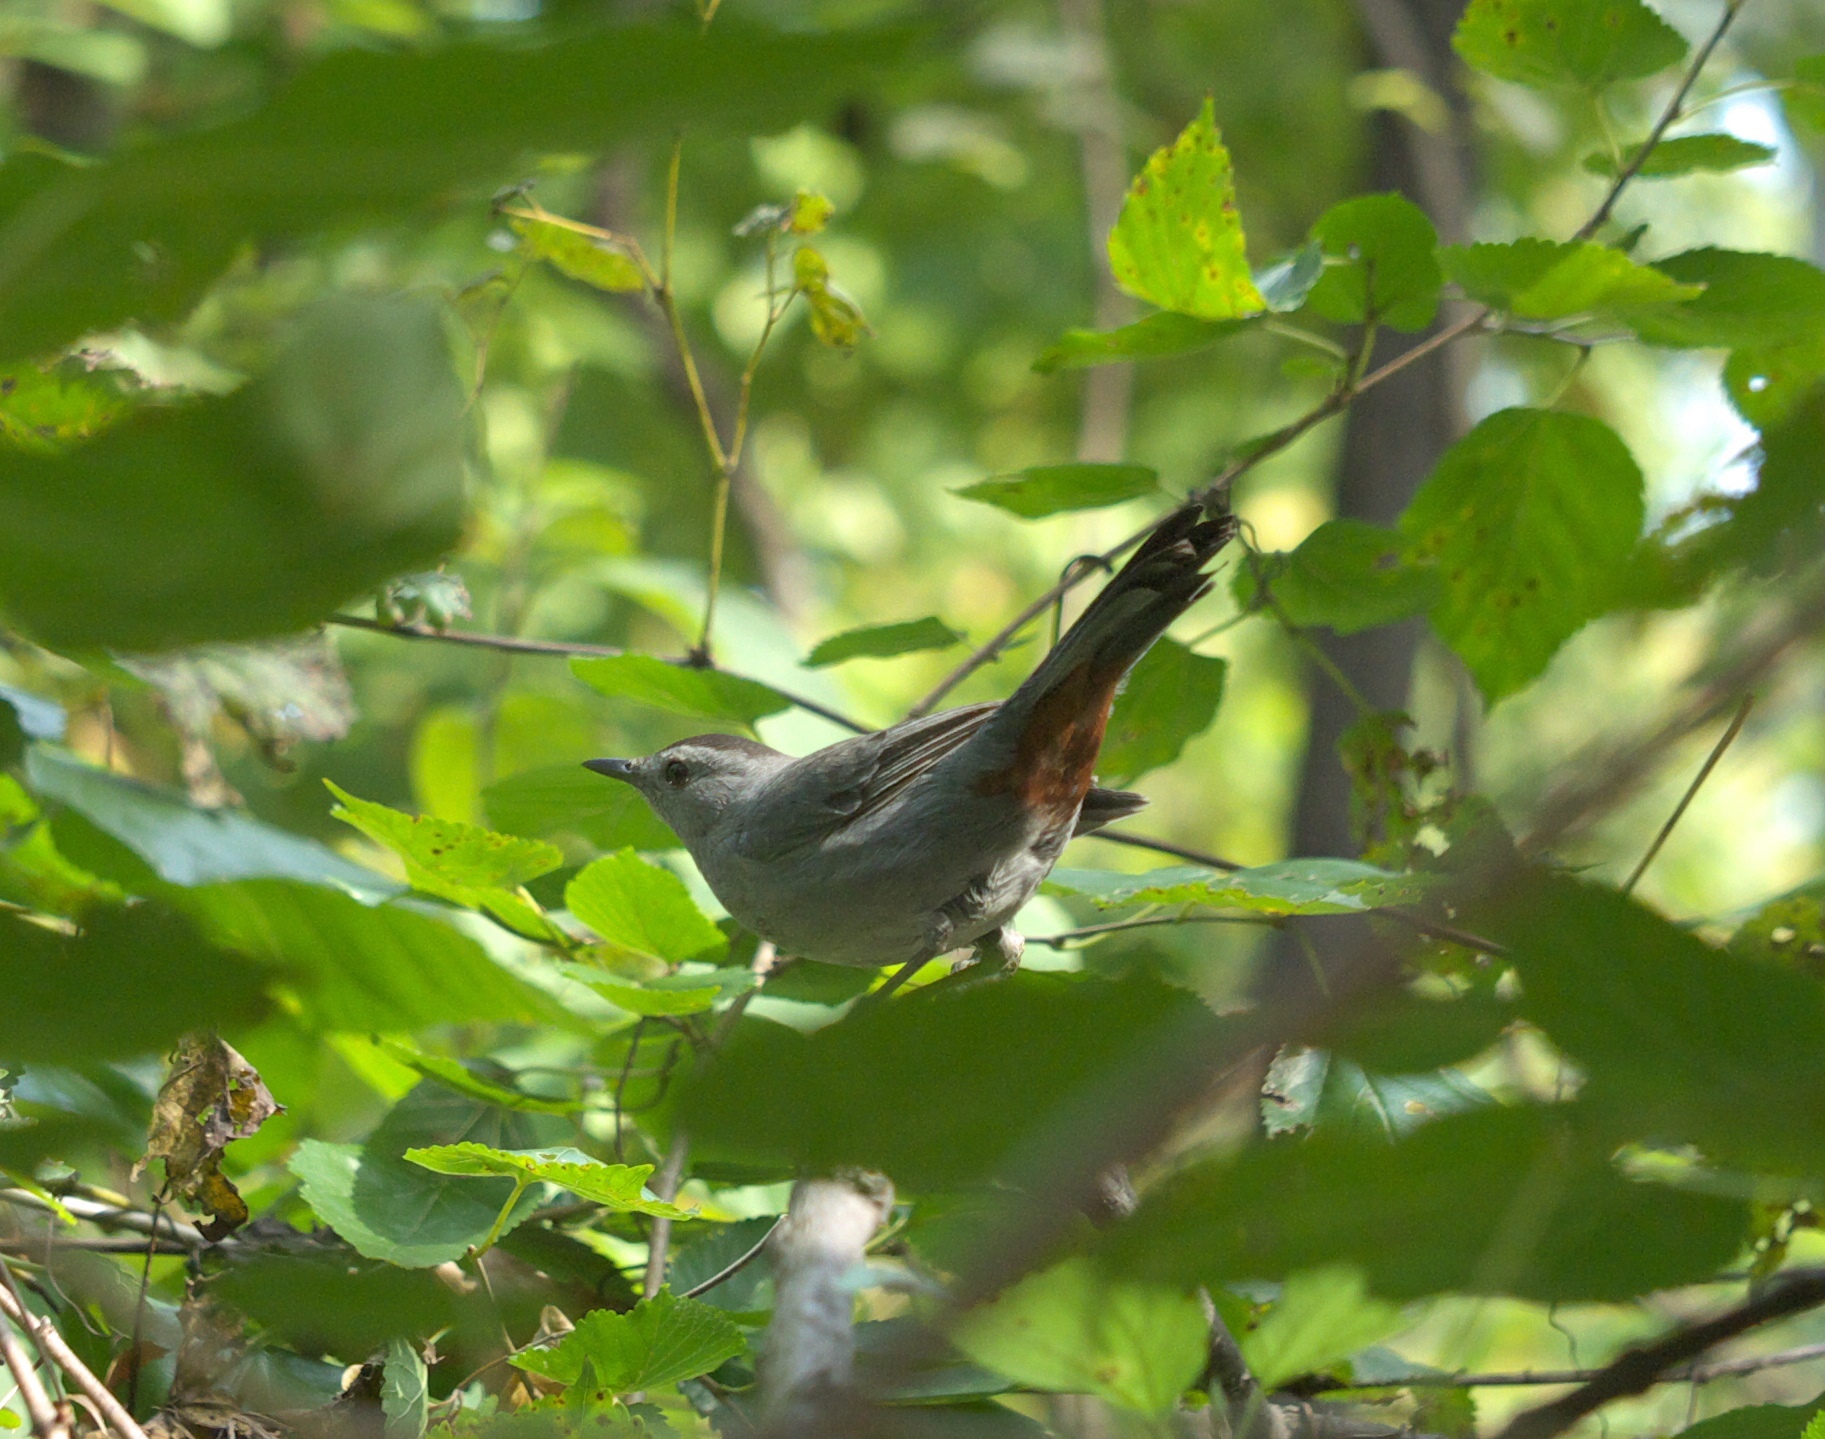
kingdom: Animalia
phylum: Chordata
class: Aves
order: Passeriformes
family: Mimidae
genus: Dumetella
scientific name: Dumetella carolinensis
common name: Gray catbird
